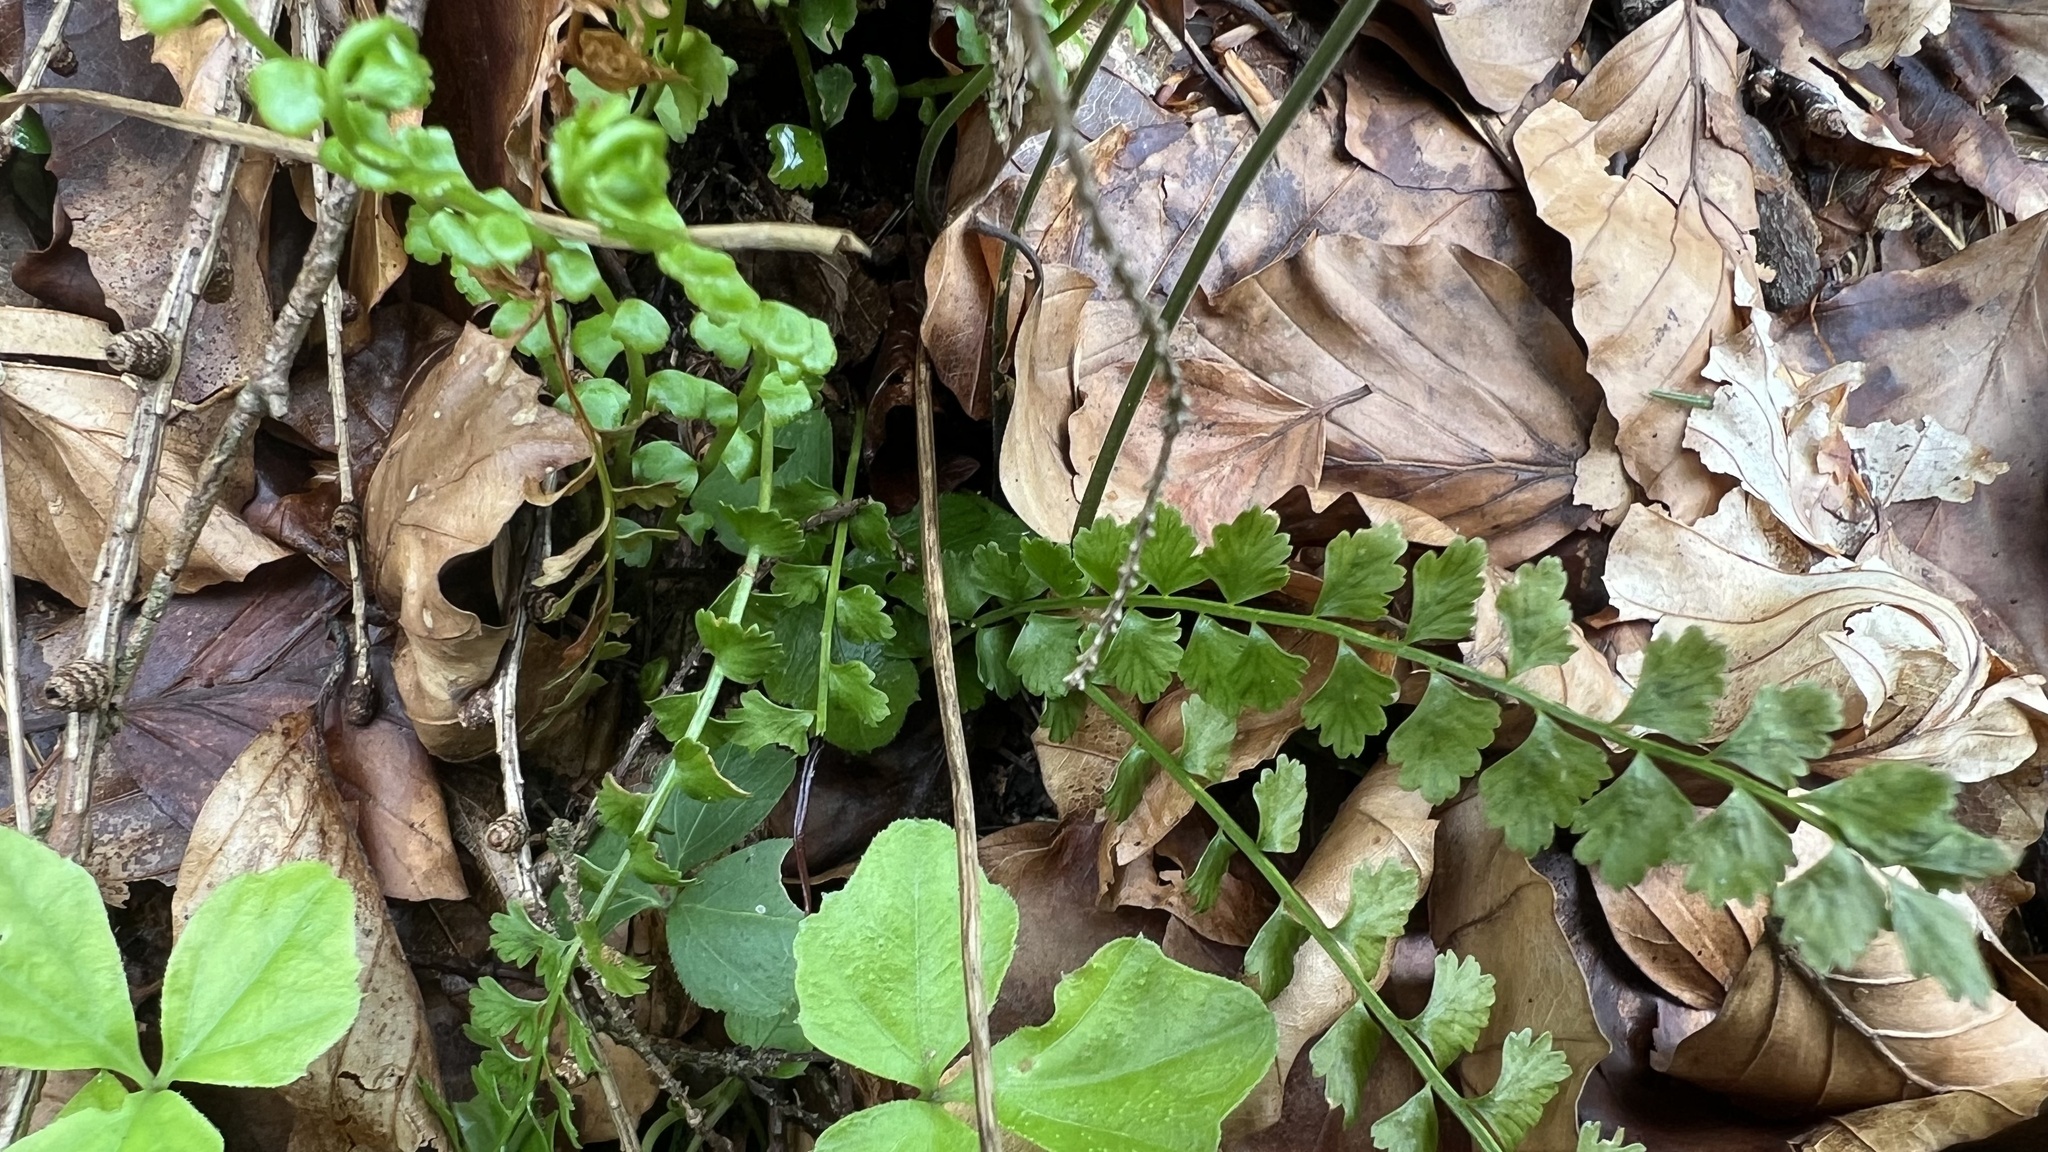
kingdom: Plantae
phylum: Tracheophyta
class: Polypodiopsida
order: Polypodiales
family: Aspleniaceae
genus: Asplenium
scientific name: Asplenium viride
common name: Green spleenwort
